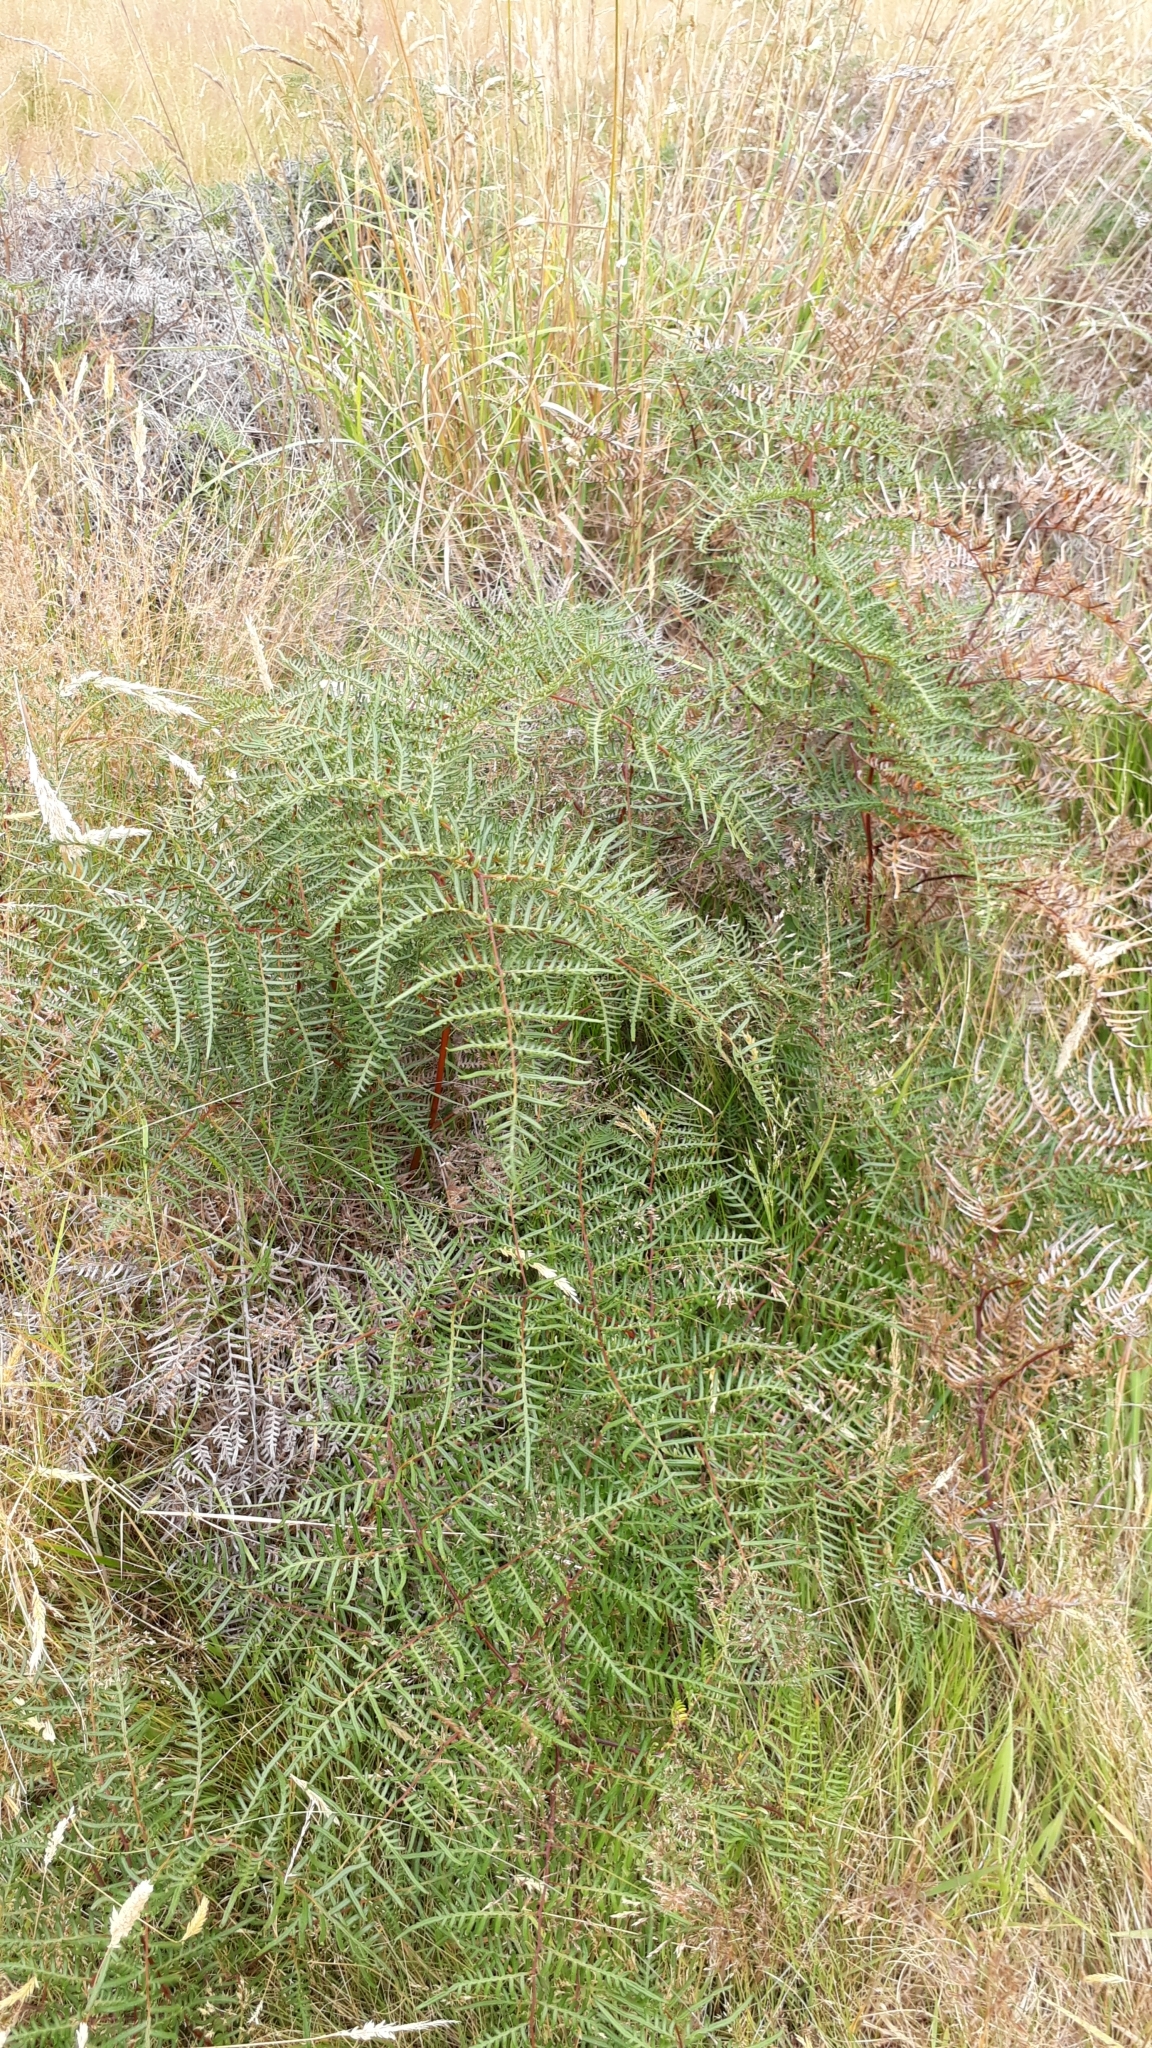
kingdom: Plantae
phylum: Tracheophyta
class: Polypodiopsida
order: Polypodiales
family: Dennstaedtiaceae
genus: Pteridium
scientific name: Pteridium esculentum
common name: Bracken fern
